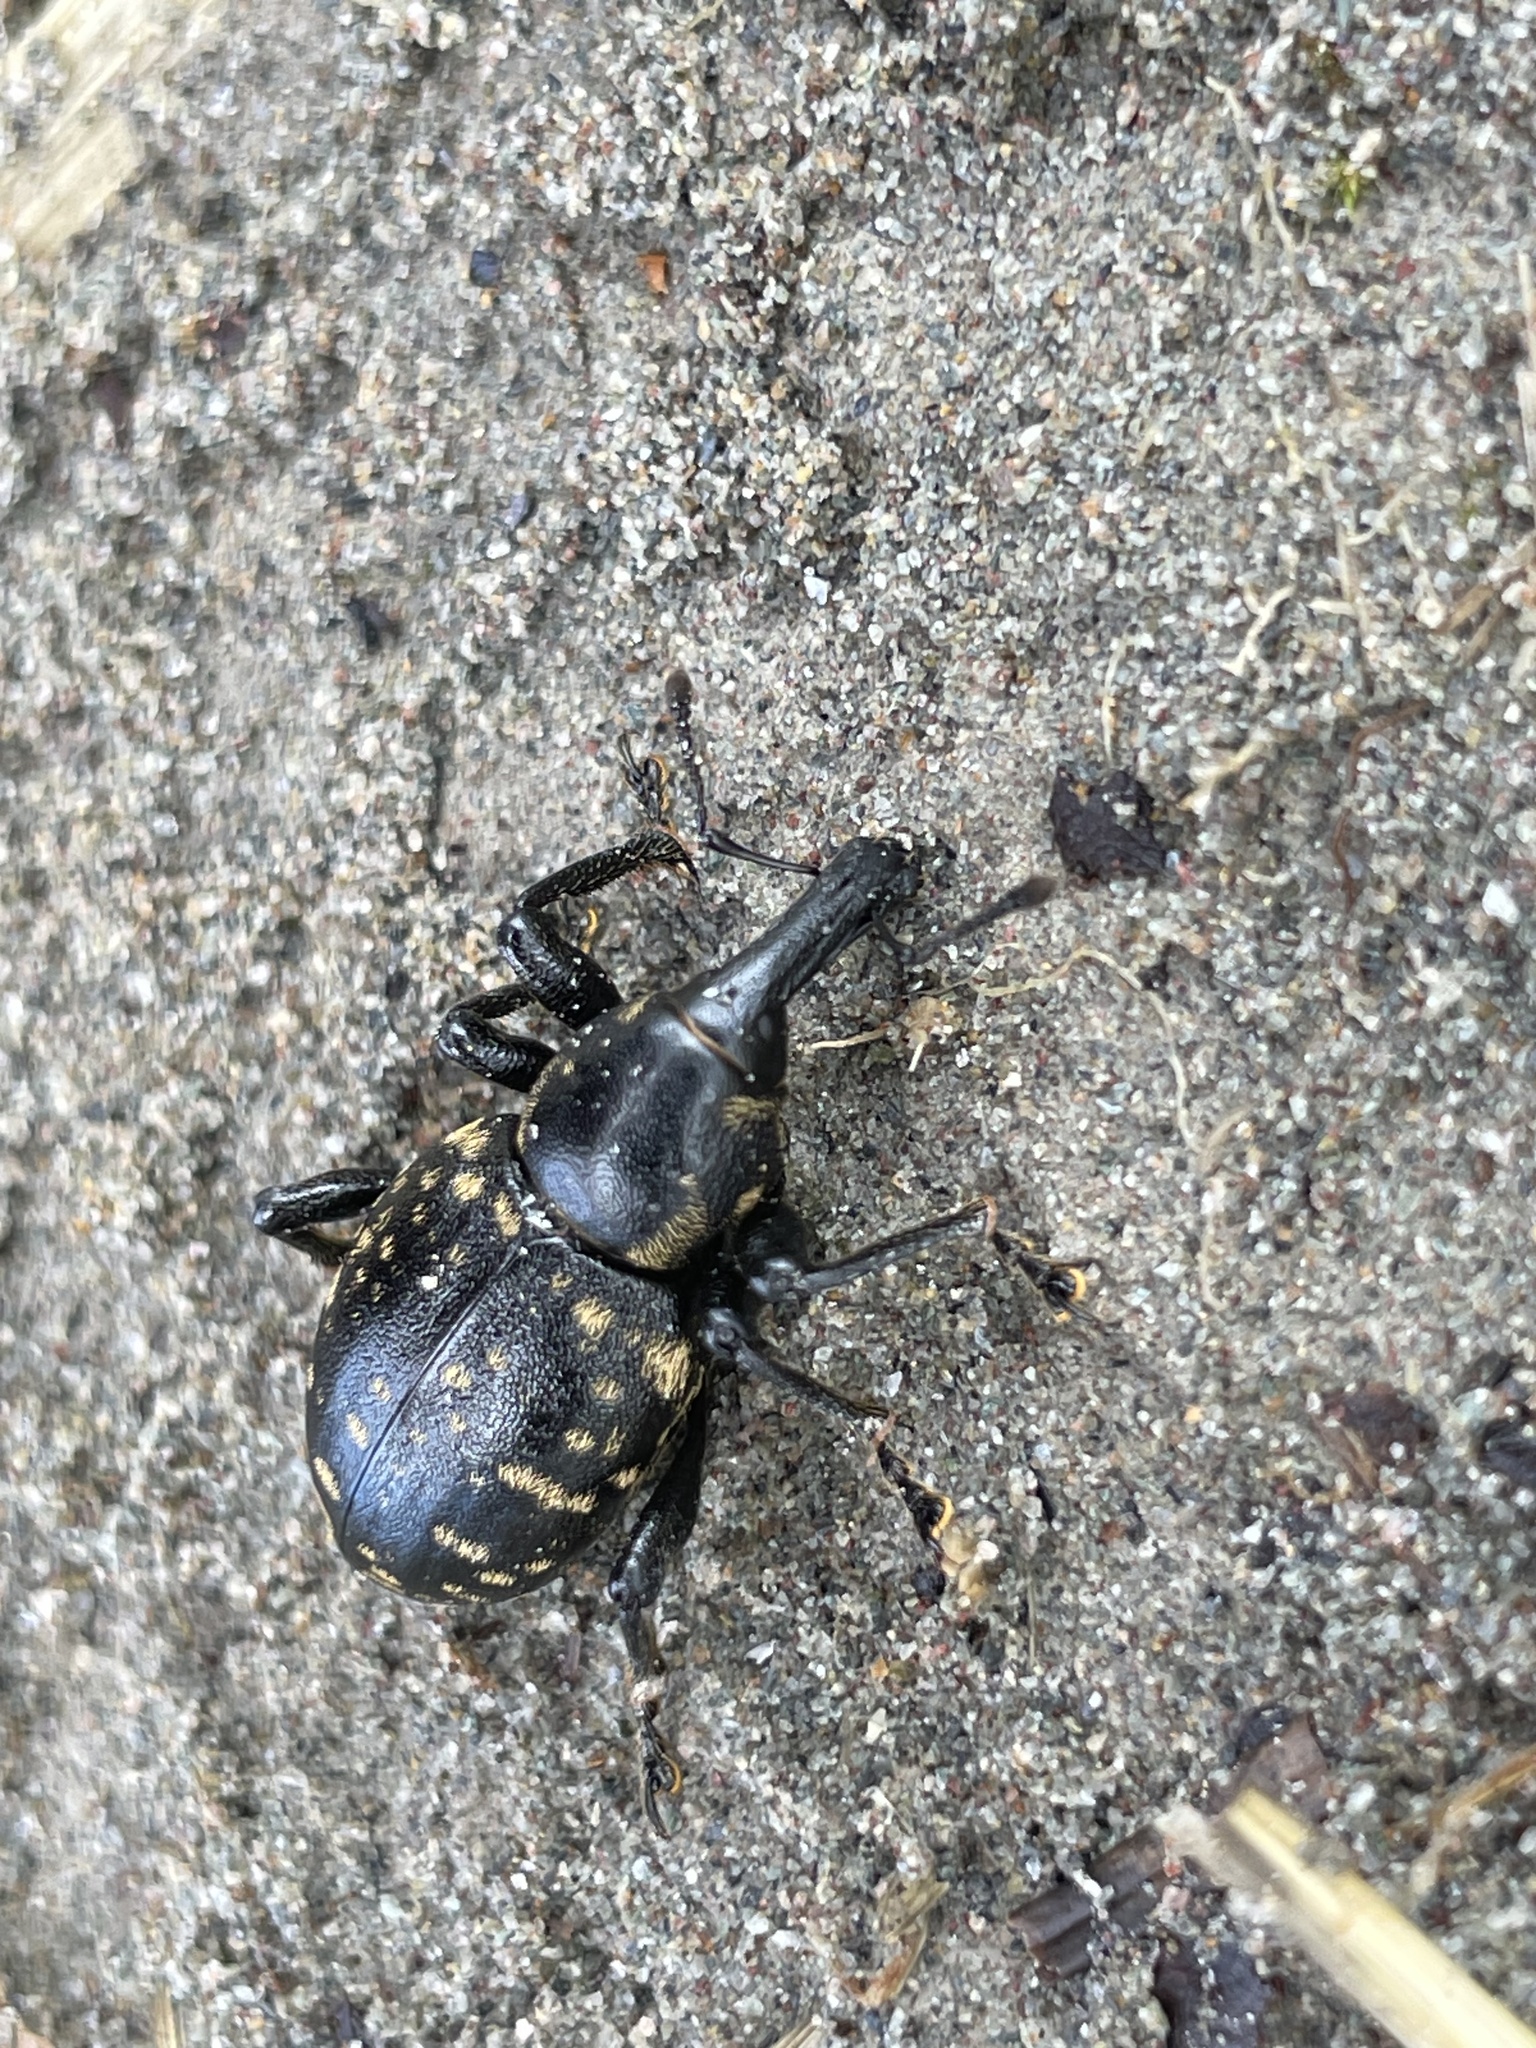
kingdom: Animalia
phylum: Arthropoda
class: Insecta
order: Coleoptera
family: Curculionidae
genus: Liparus
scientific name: Liparus glabrirostris
